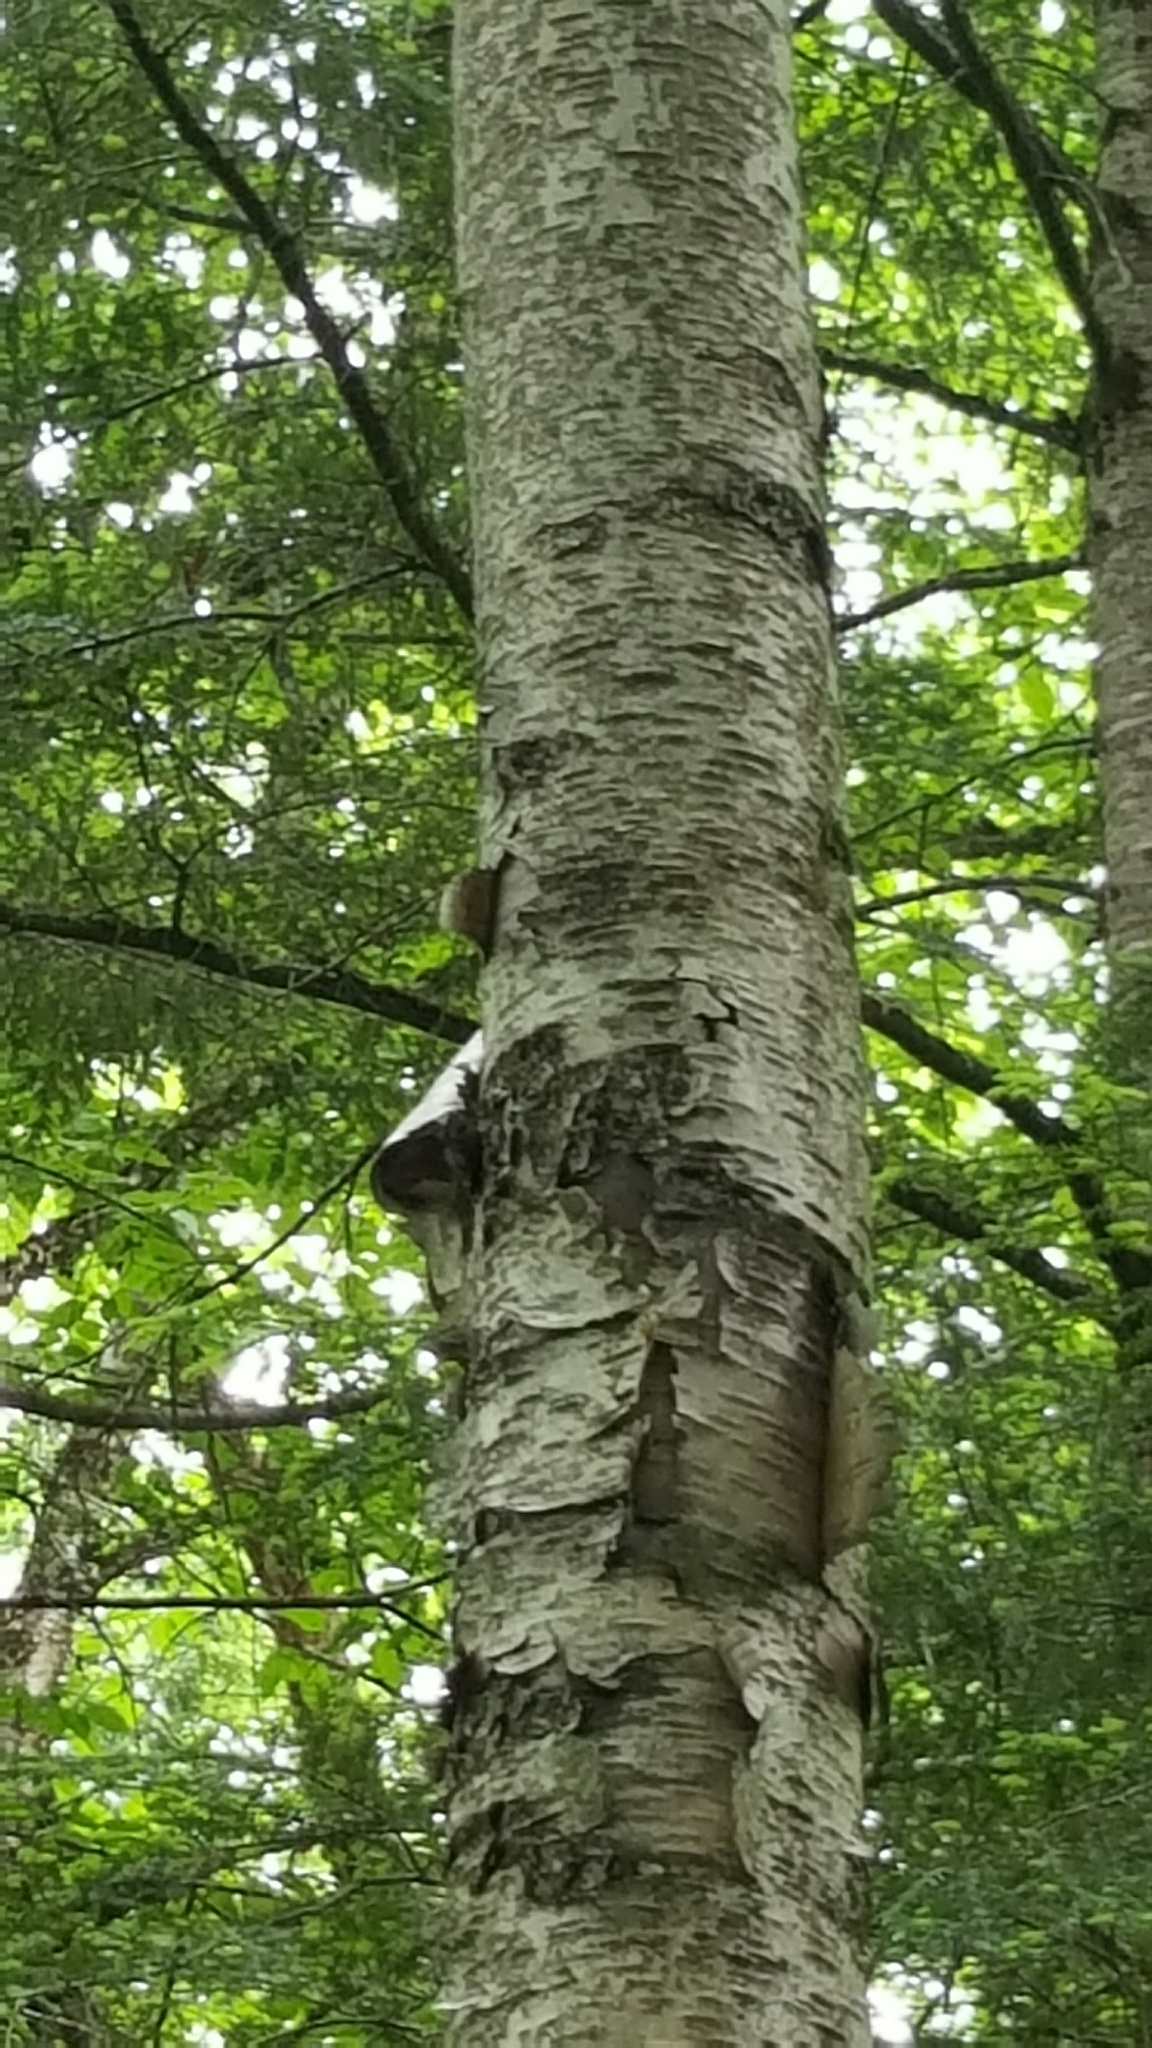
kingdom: Plantae
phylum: Tracheophyta
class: Magnoliopsida
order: Fagales
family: Betulaceae
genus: Betula
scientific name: Betula papyrifera
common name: Paper birch
